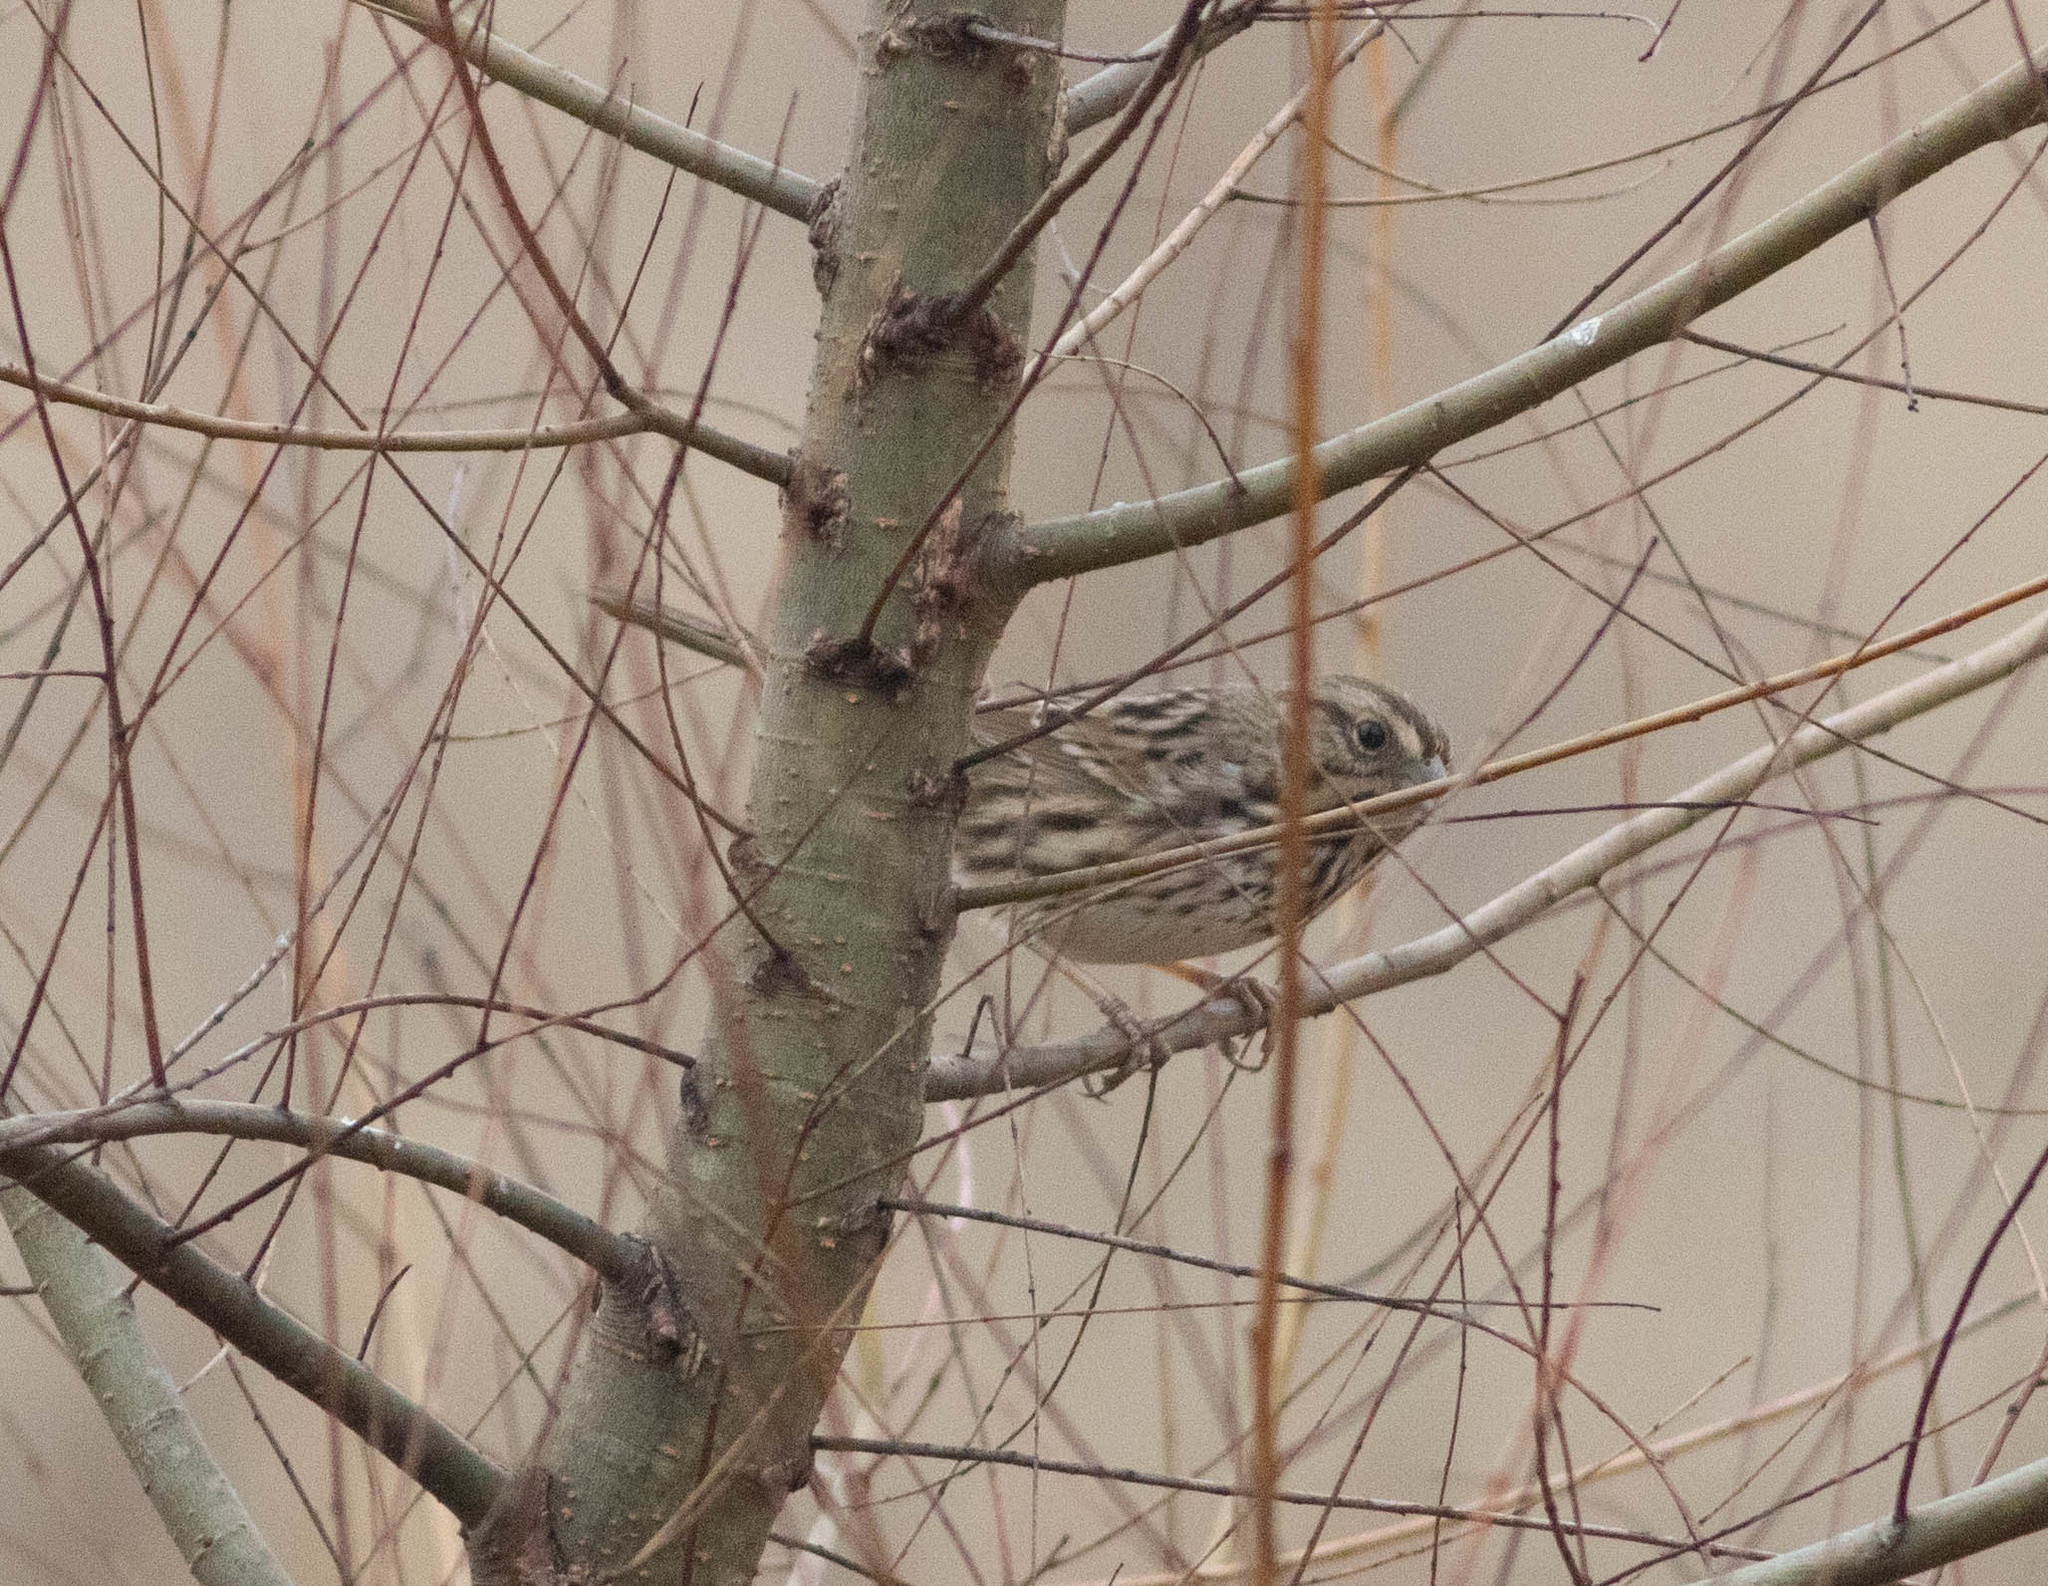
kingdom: Animalia
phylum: Chordata
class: Aves
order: Passeriformes
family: Passerellidae
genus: Melospiza
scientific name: Melospiza melodia
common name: Song sparrow
